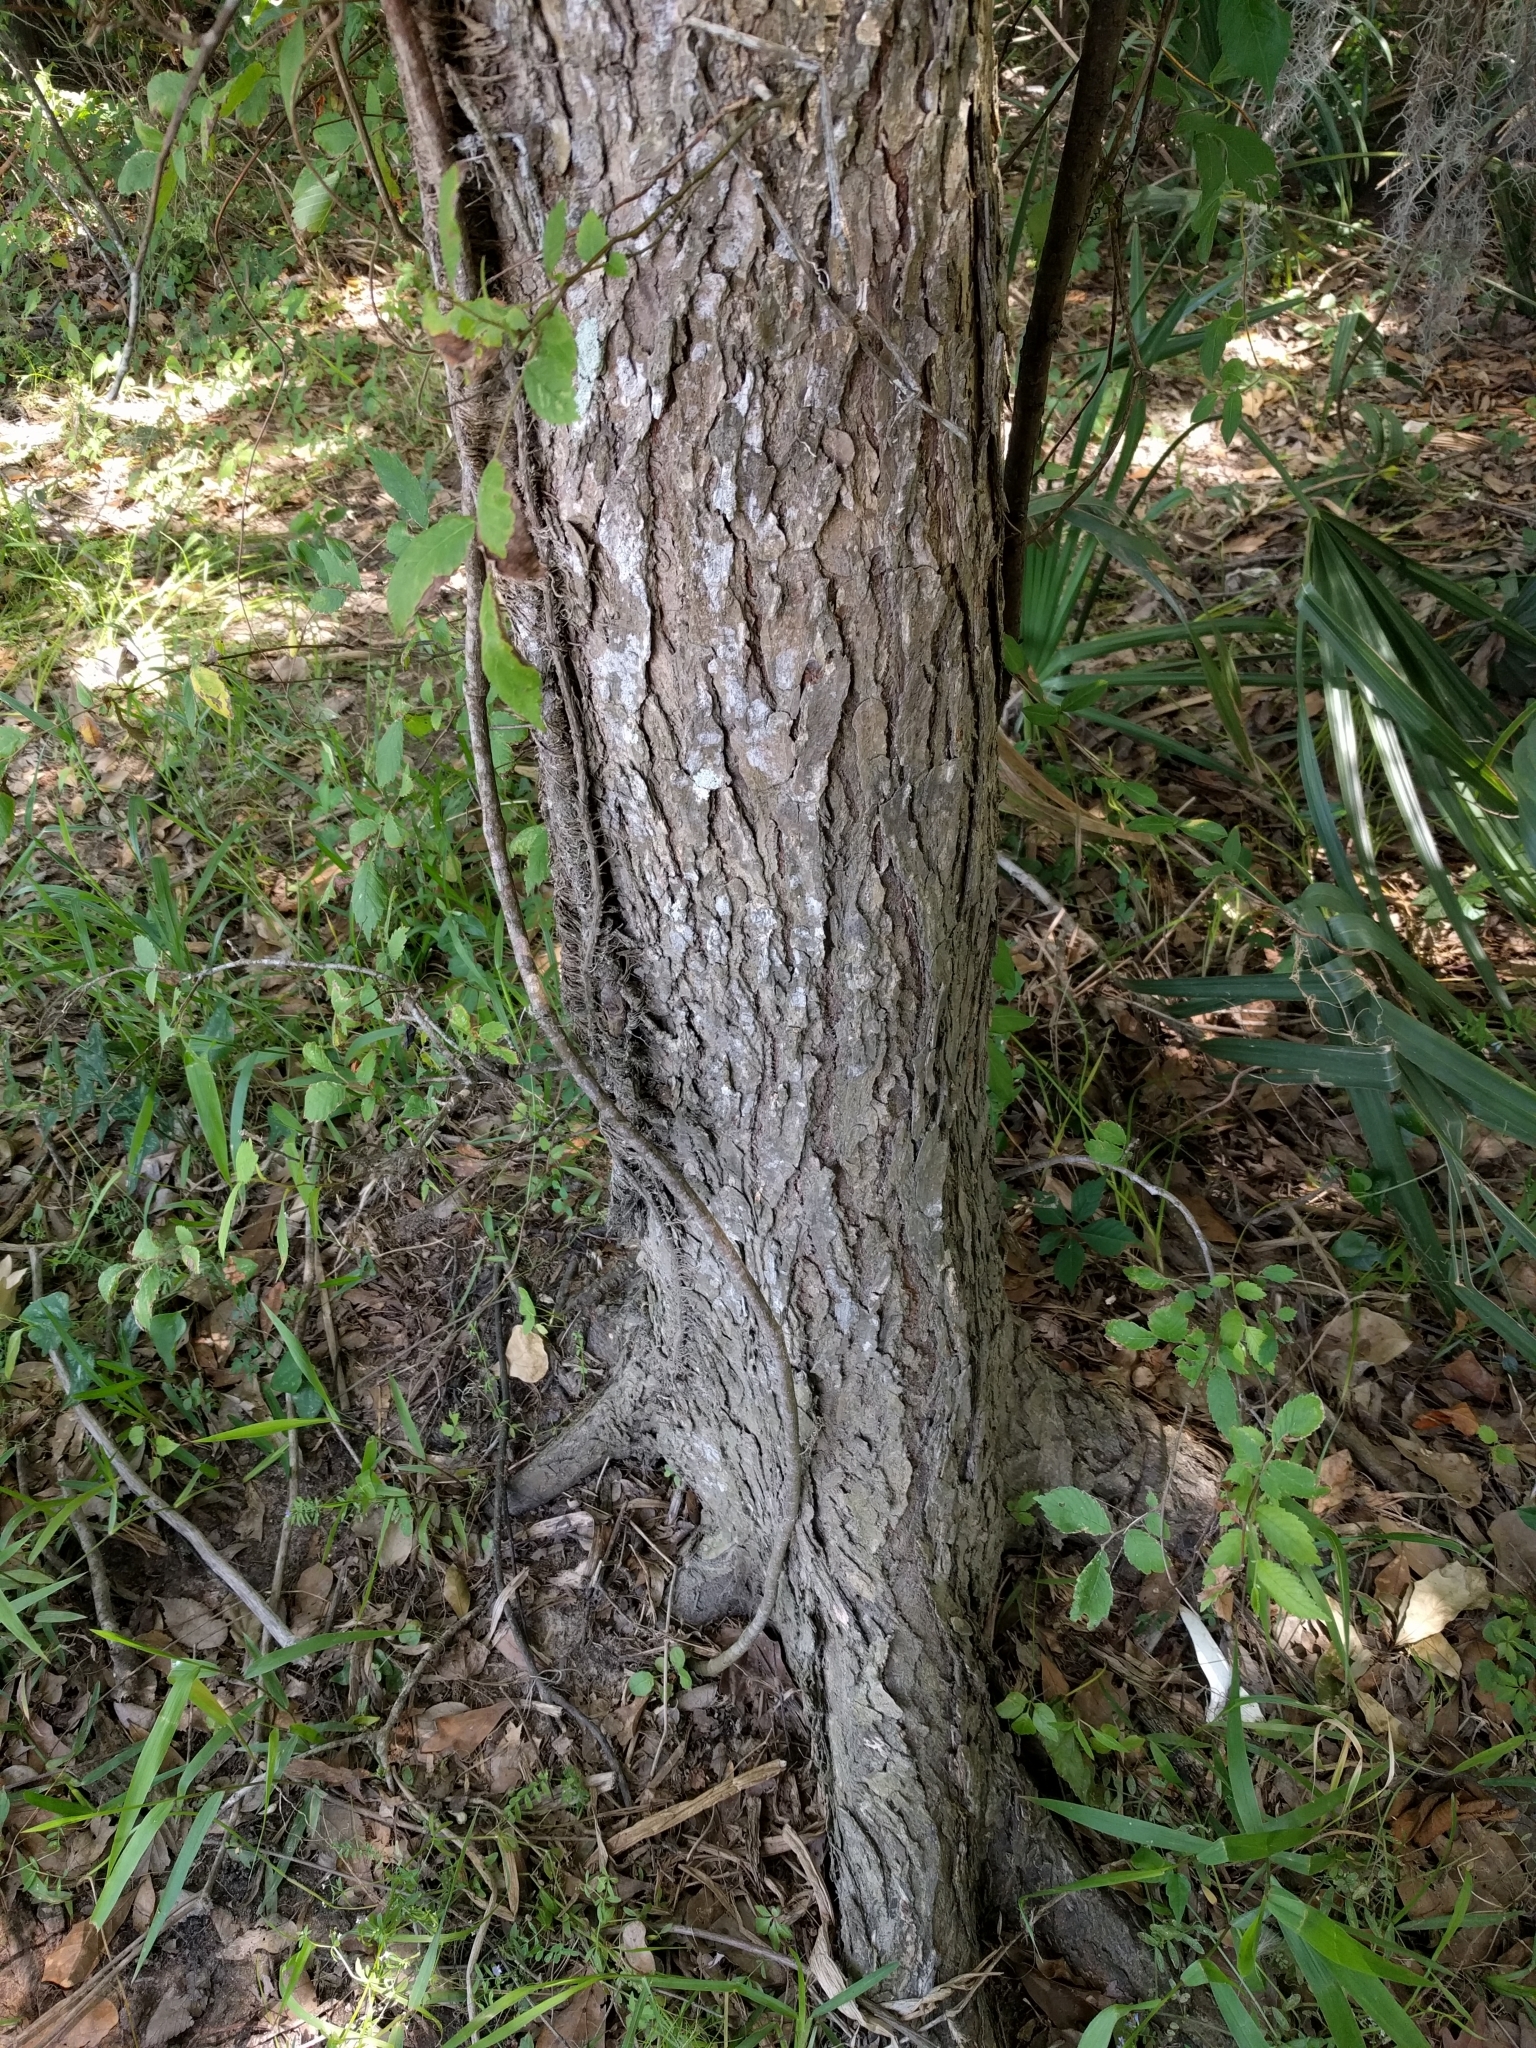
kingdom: Plantae
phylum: Tracheophyta
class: Magnoliopsida
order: Rosales
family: Ulmaceae
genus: Ulmus
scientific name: Ulmus americana
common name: American elm
